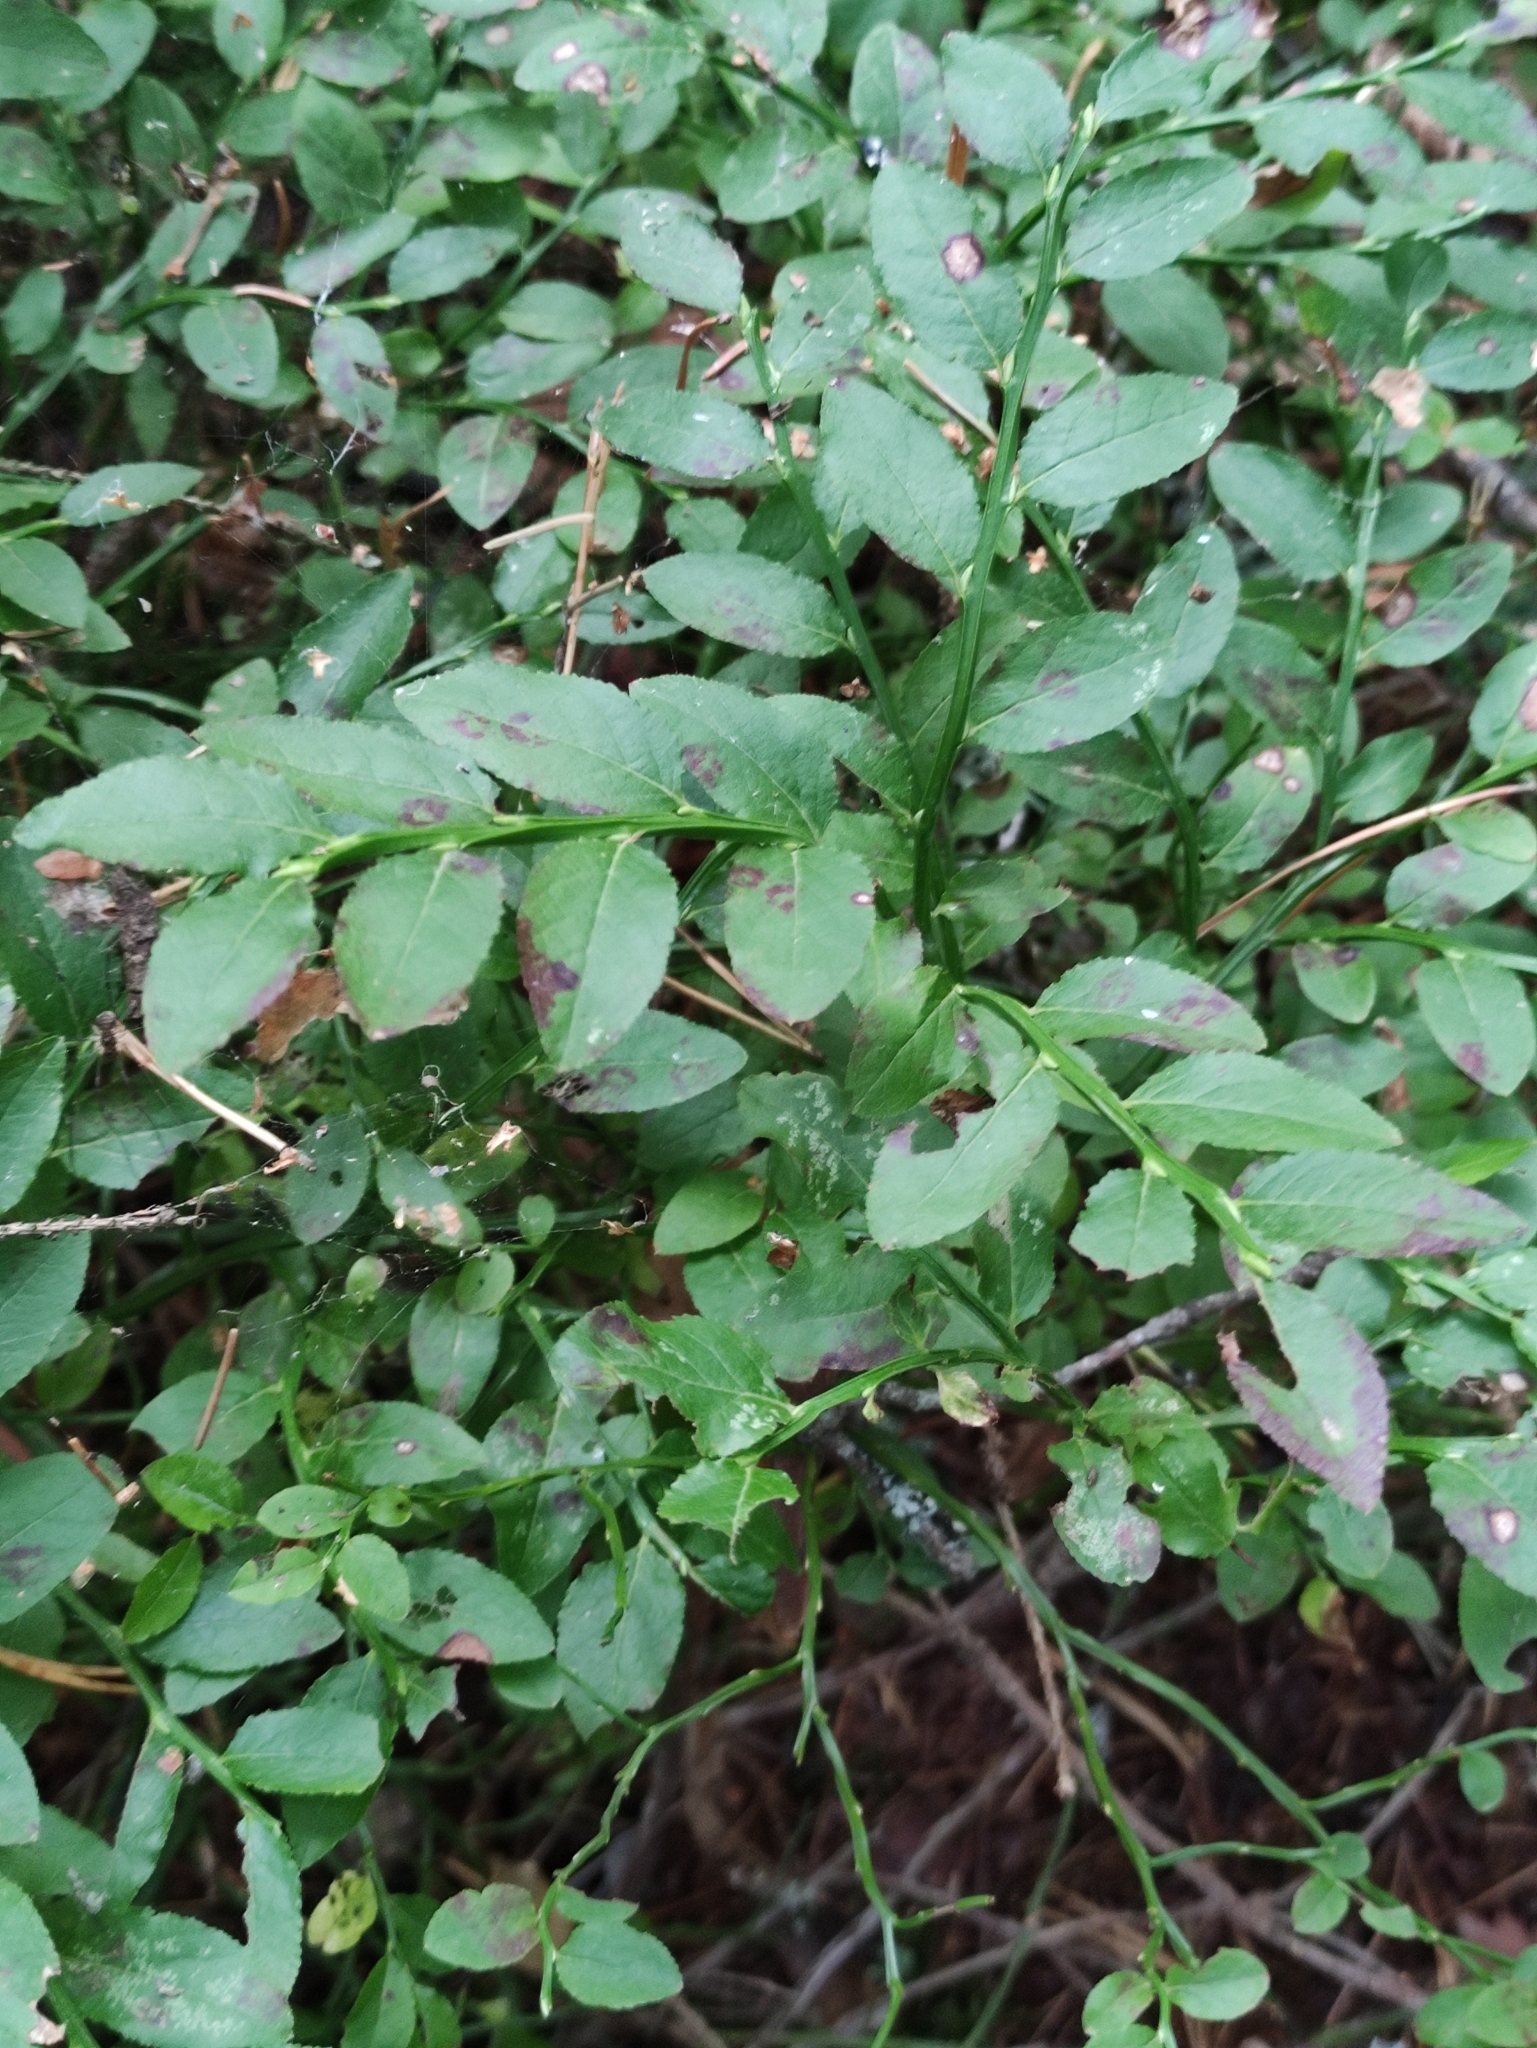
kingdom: Plantae
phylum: Tracheophyta
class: Magnoliopsida
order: Ericales
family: Ericaceae
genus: Vaccinium
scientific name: Vaccinium myrtillus
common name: Bilberry
